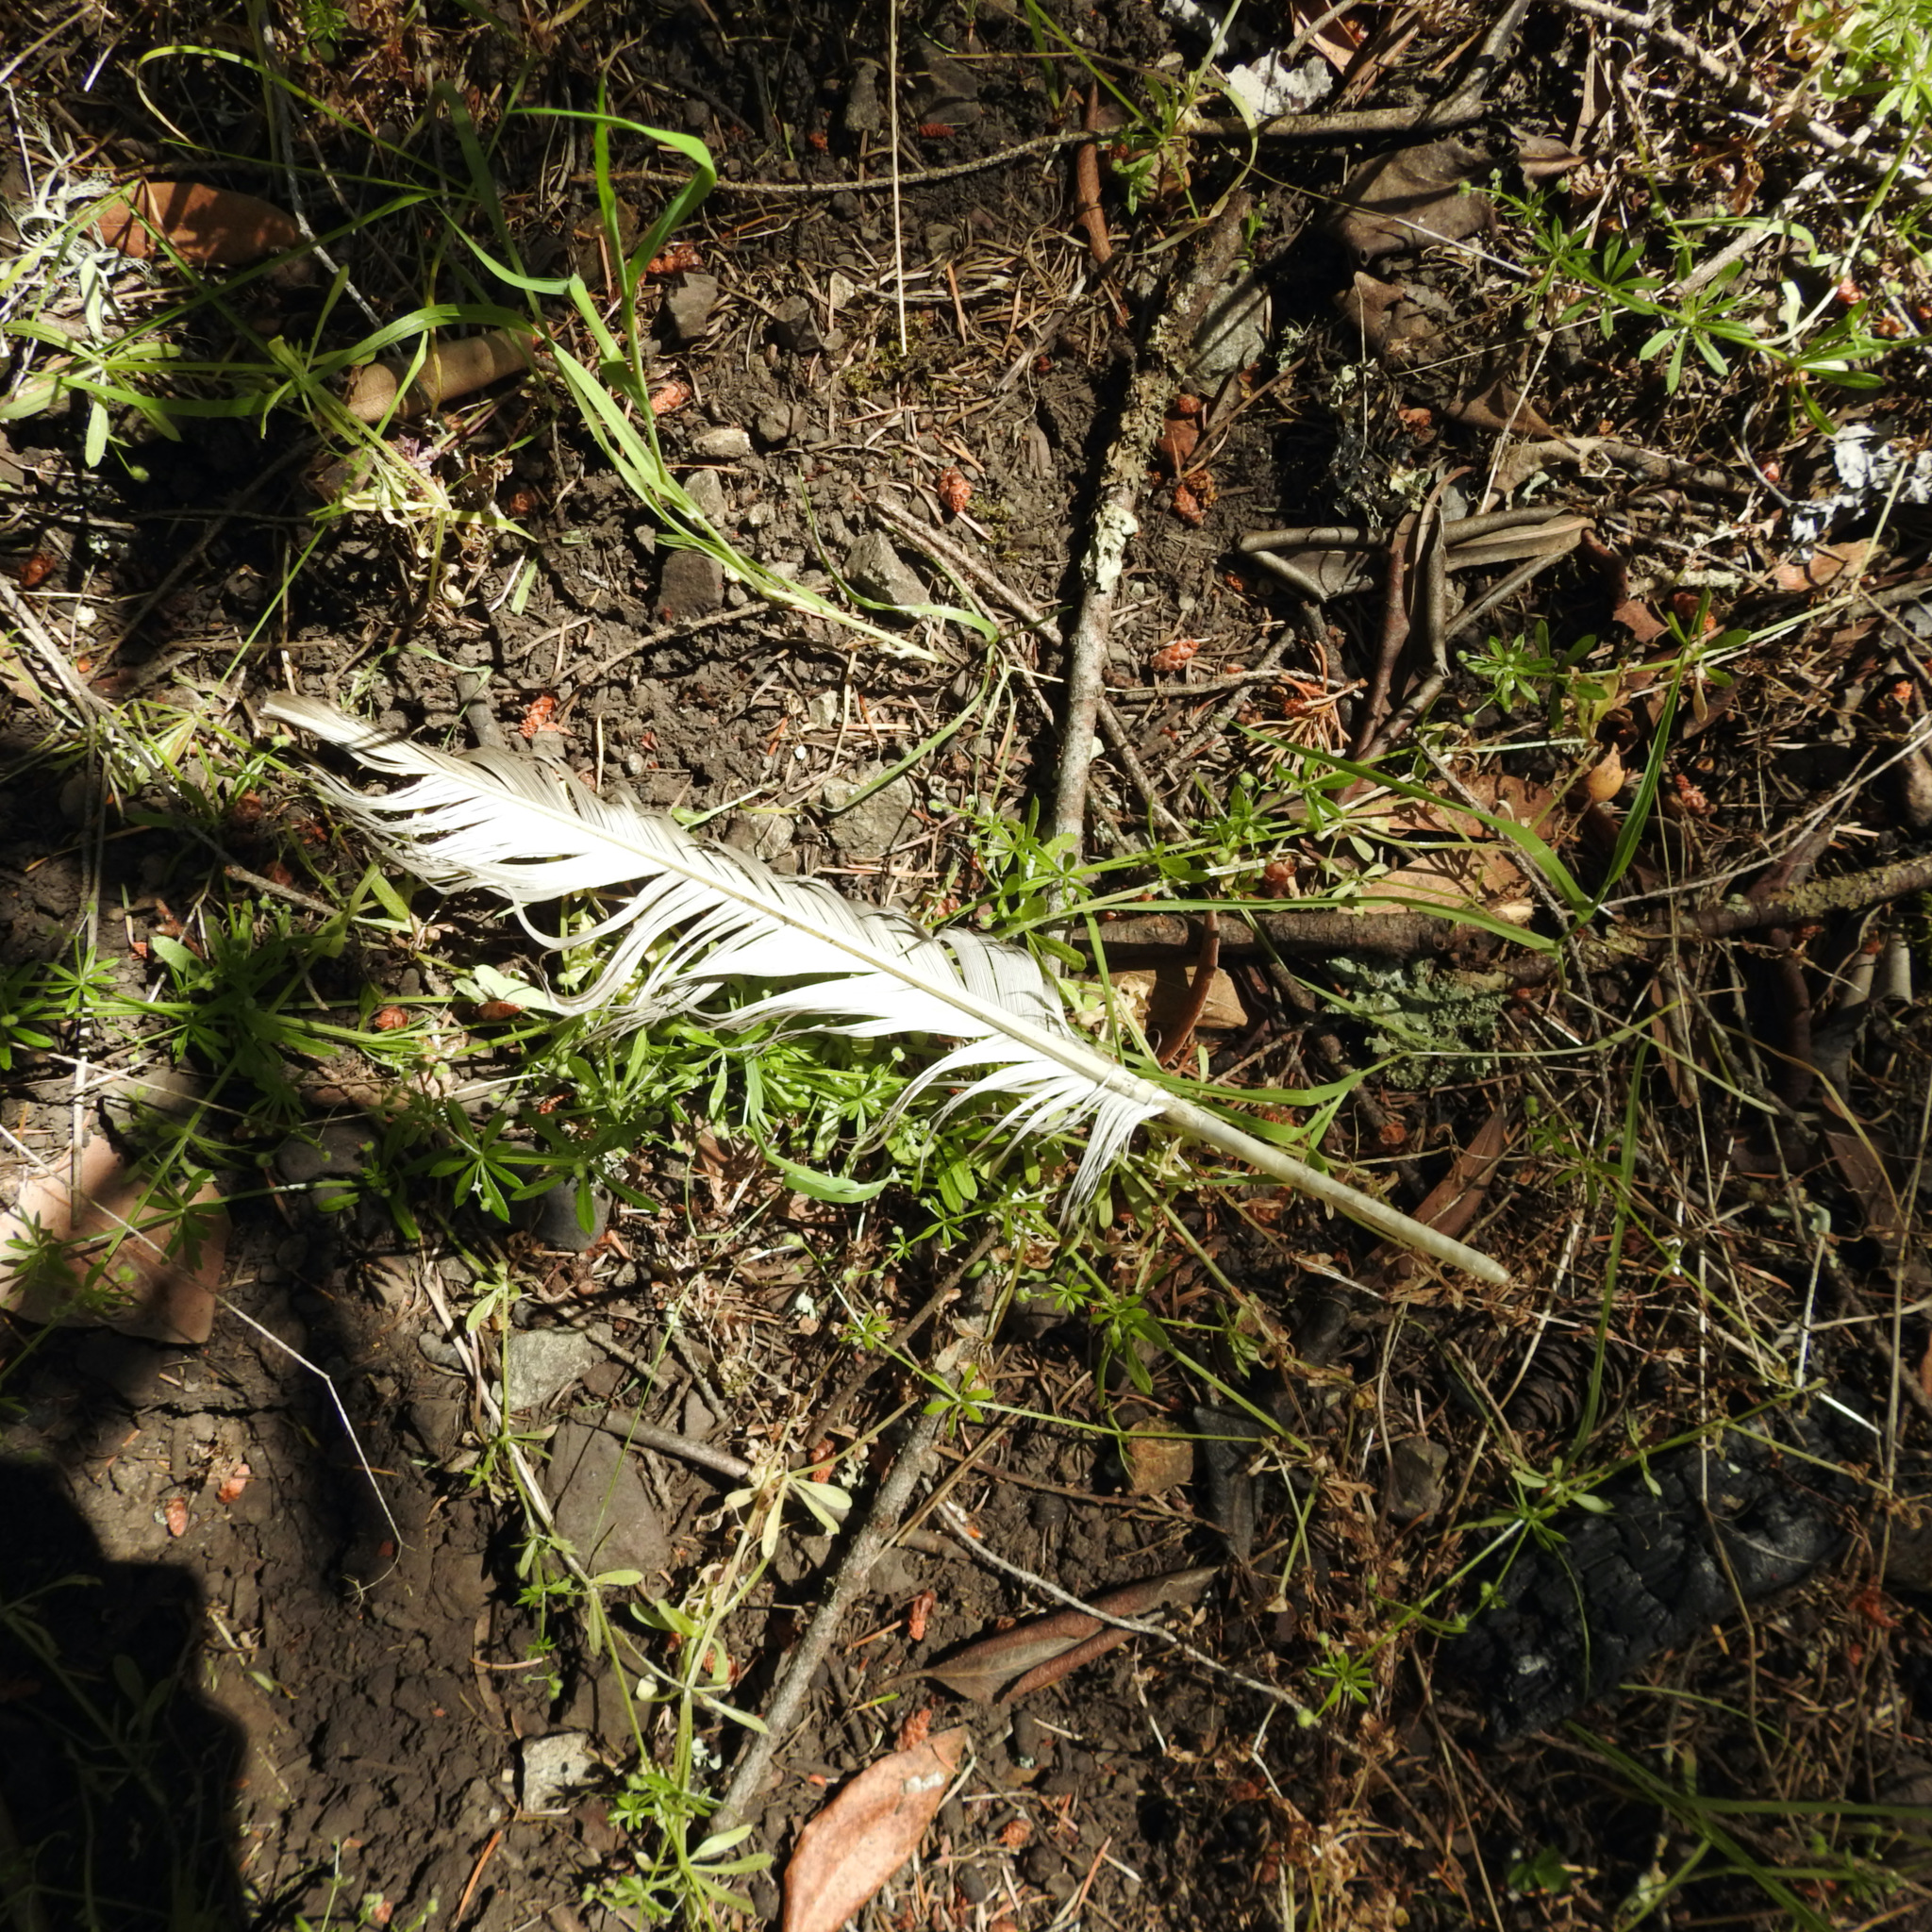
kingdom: Animalia
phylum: Chordata
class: Aves
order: Accipitriformes
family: Cathartidae
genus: Cathartes
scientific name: Cathartes aura
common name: Turkey vulture
